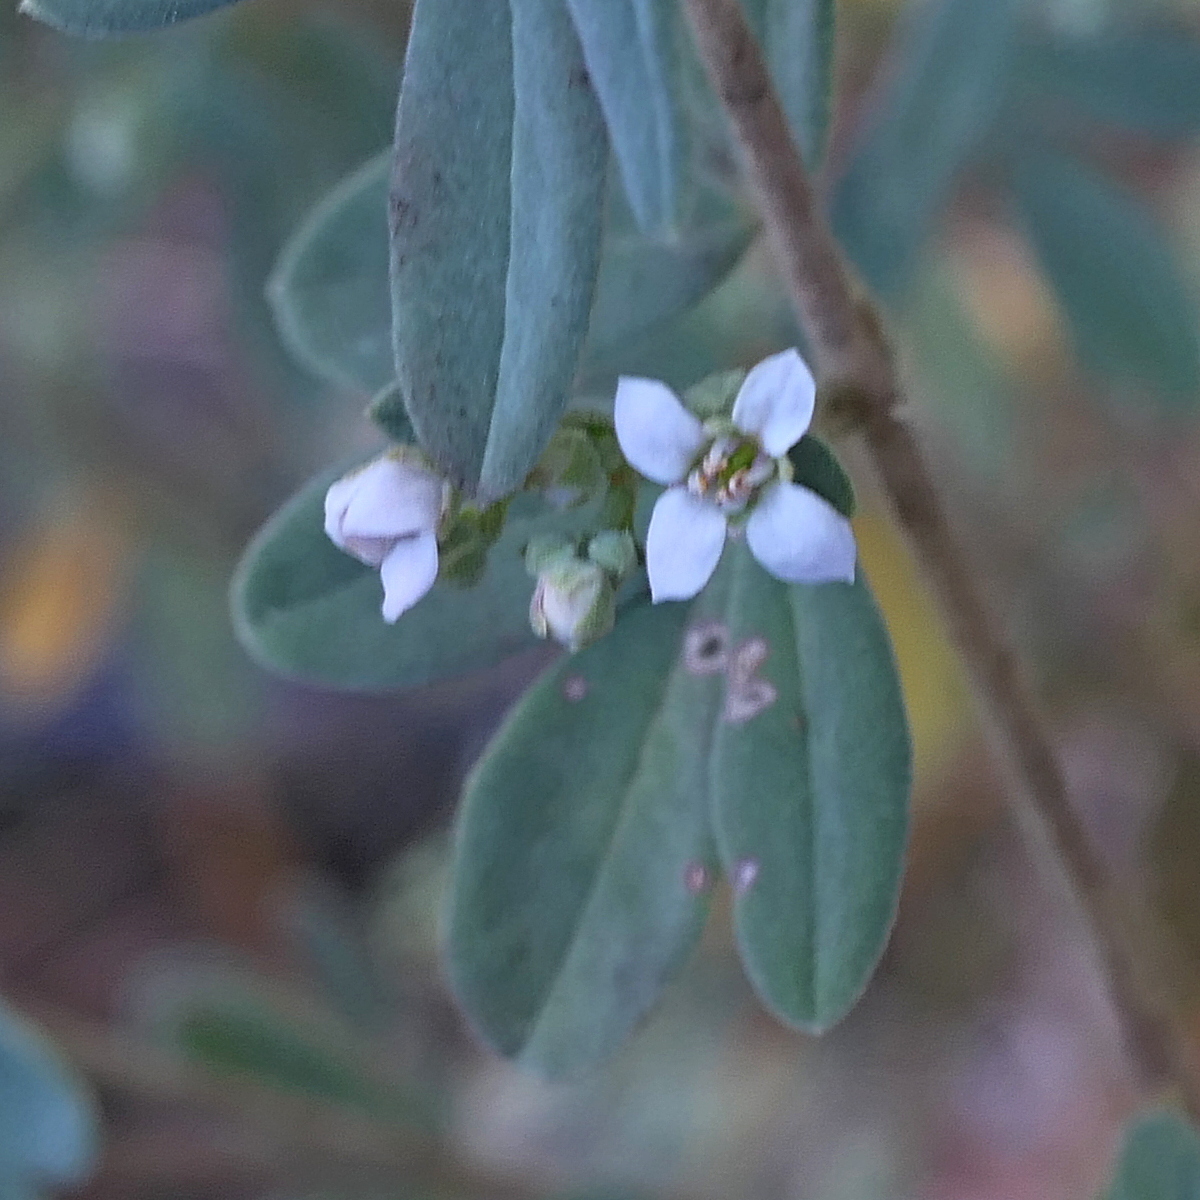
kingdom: Plantae
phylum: Tracheophyta
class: Magnoliopsida
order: Sapindales
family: Rutaceae
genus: Zieria
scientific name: Zieria cytisoides
